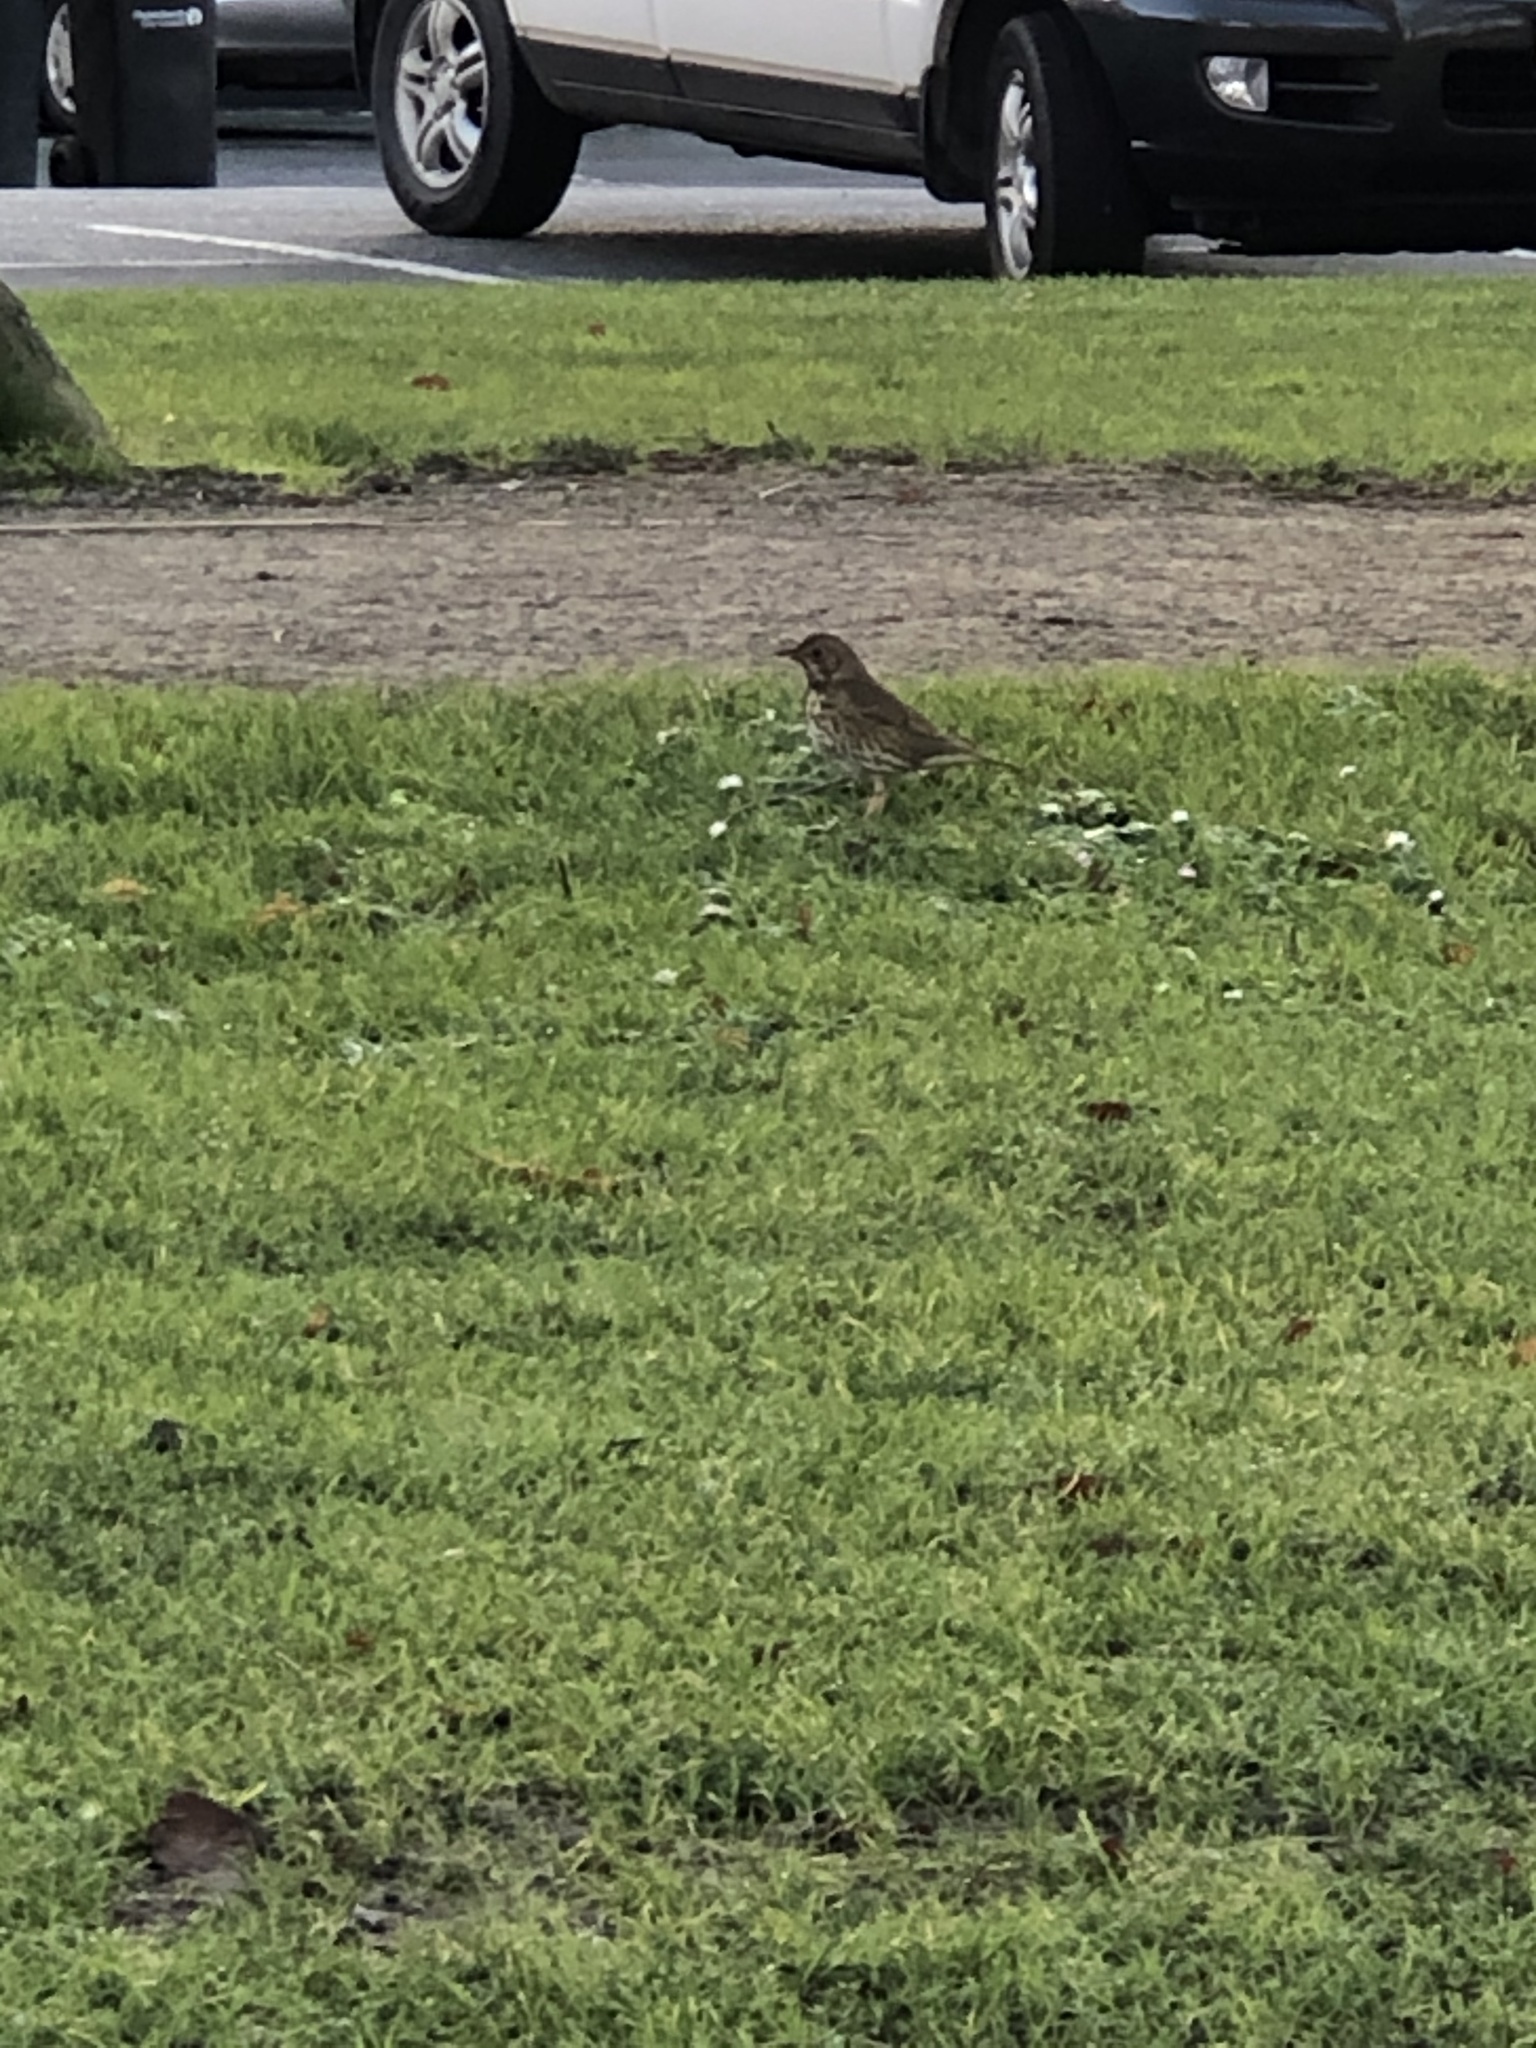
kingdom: Animalia
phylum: Chordata
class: Aves
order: Passeriformes
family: Turdidae
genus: Turdus
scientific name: Turdus philomelos
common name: Song thrush
